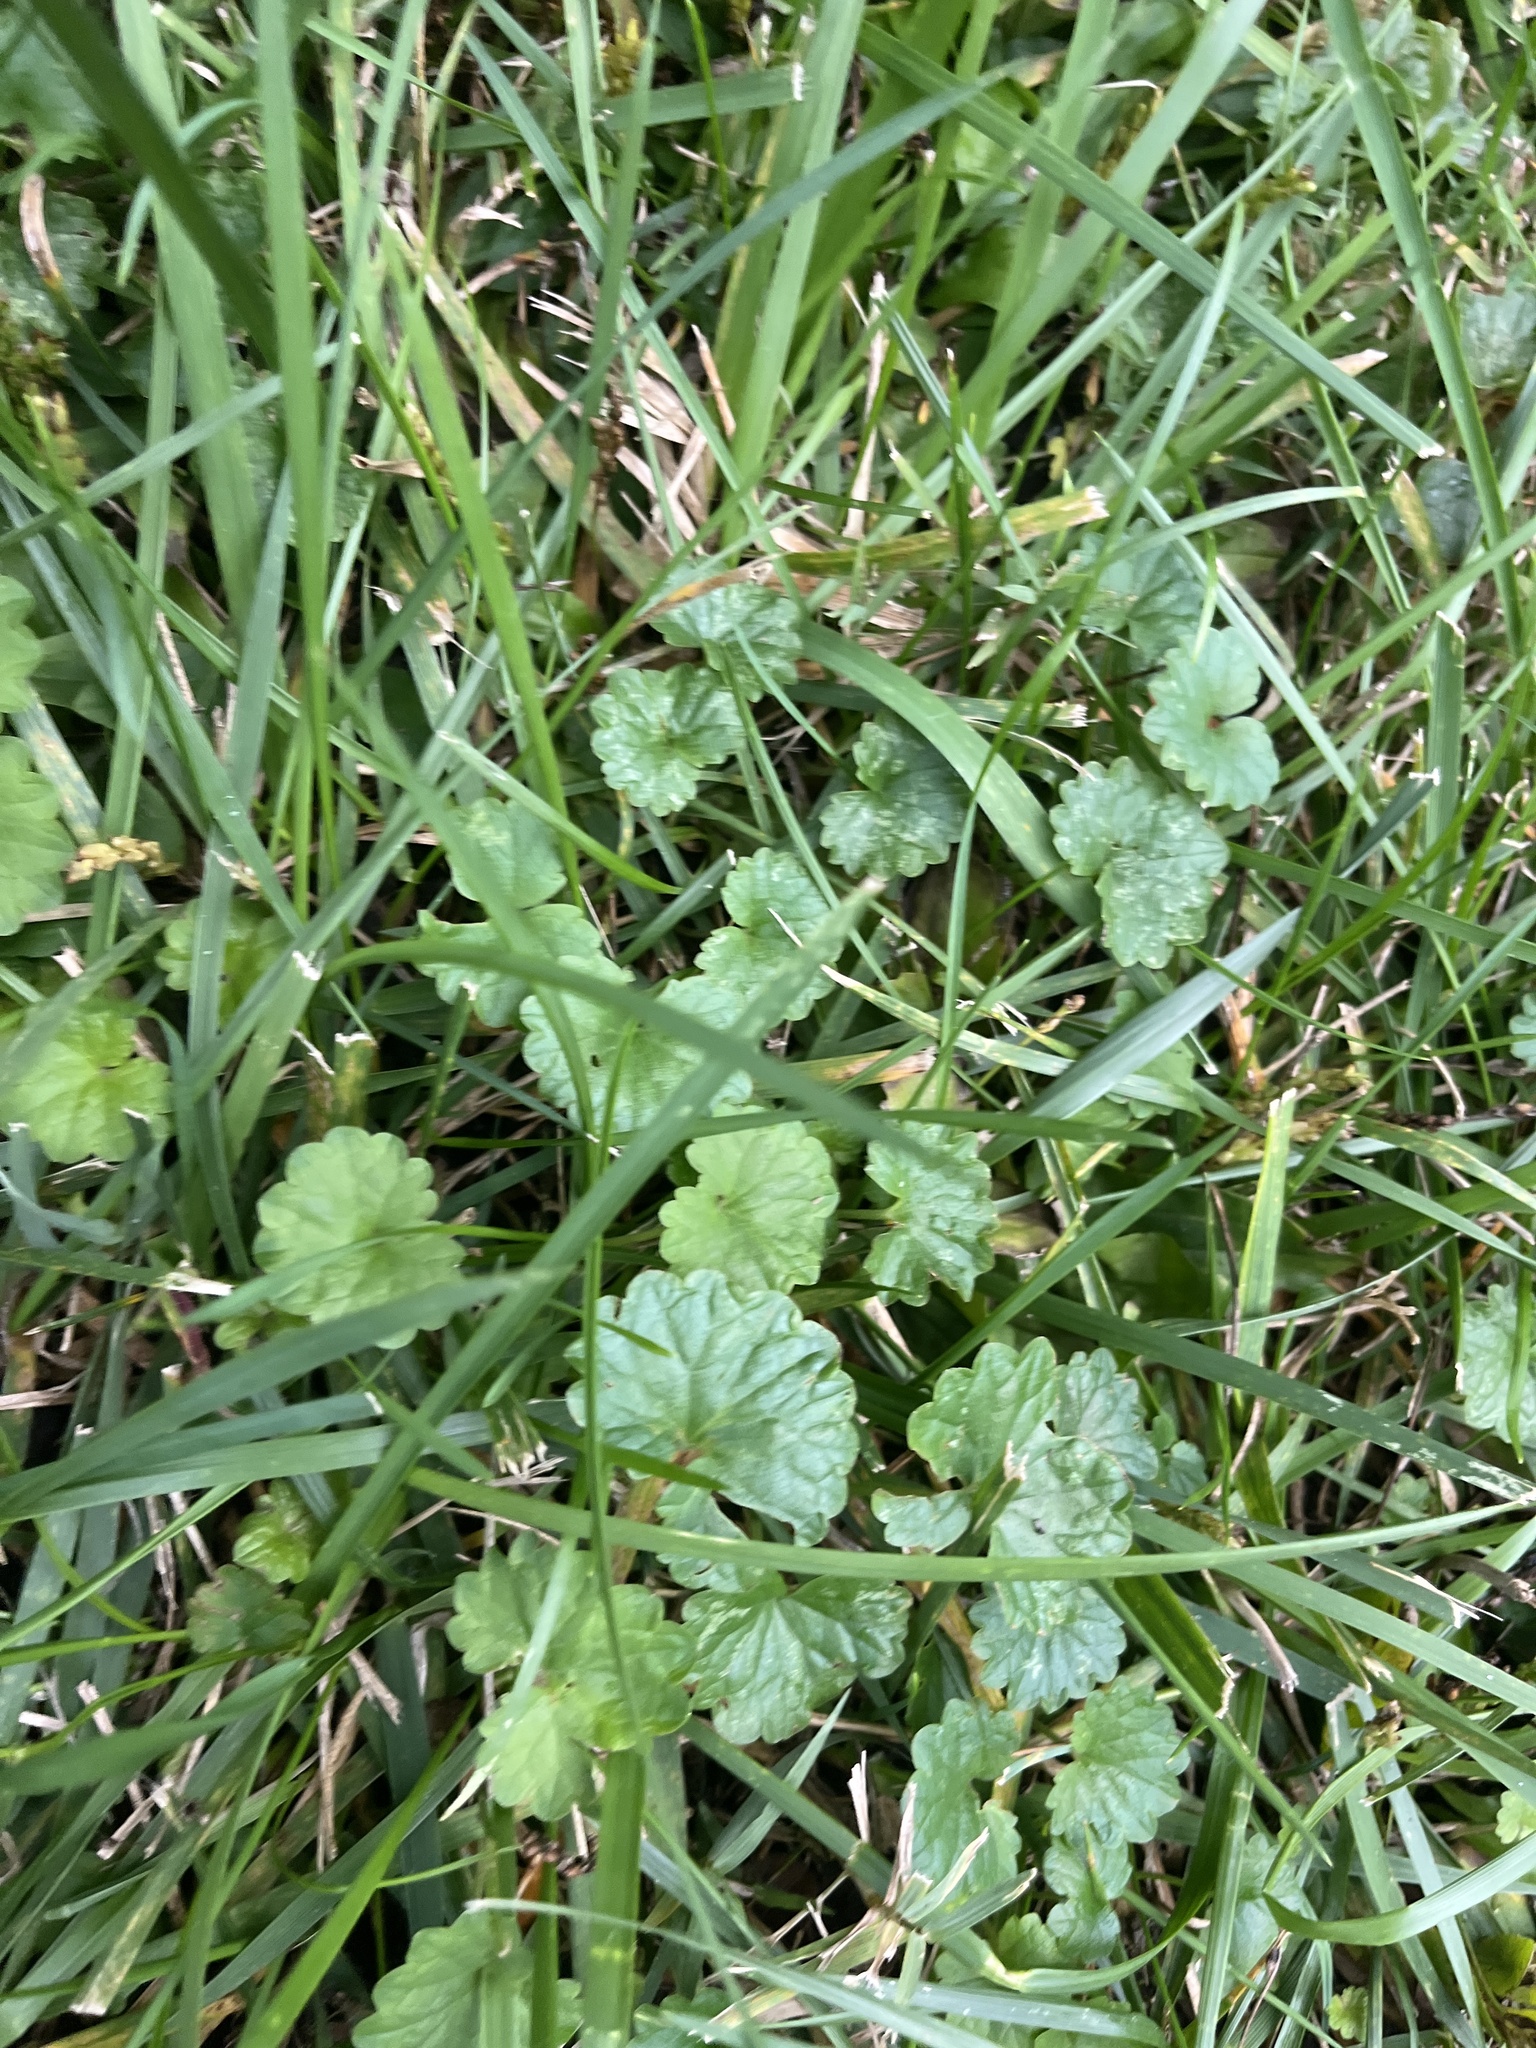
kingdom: Plantae
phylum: Tracheophyta
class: Magnoliopsida
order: Lamiales
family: Lamiaceae
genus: Glechoma
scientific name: Glechoma hederacea
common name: Ground ivy
